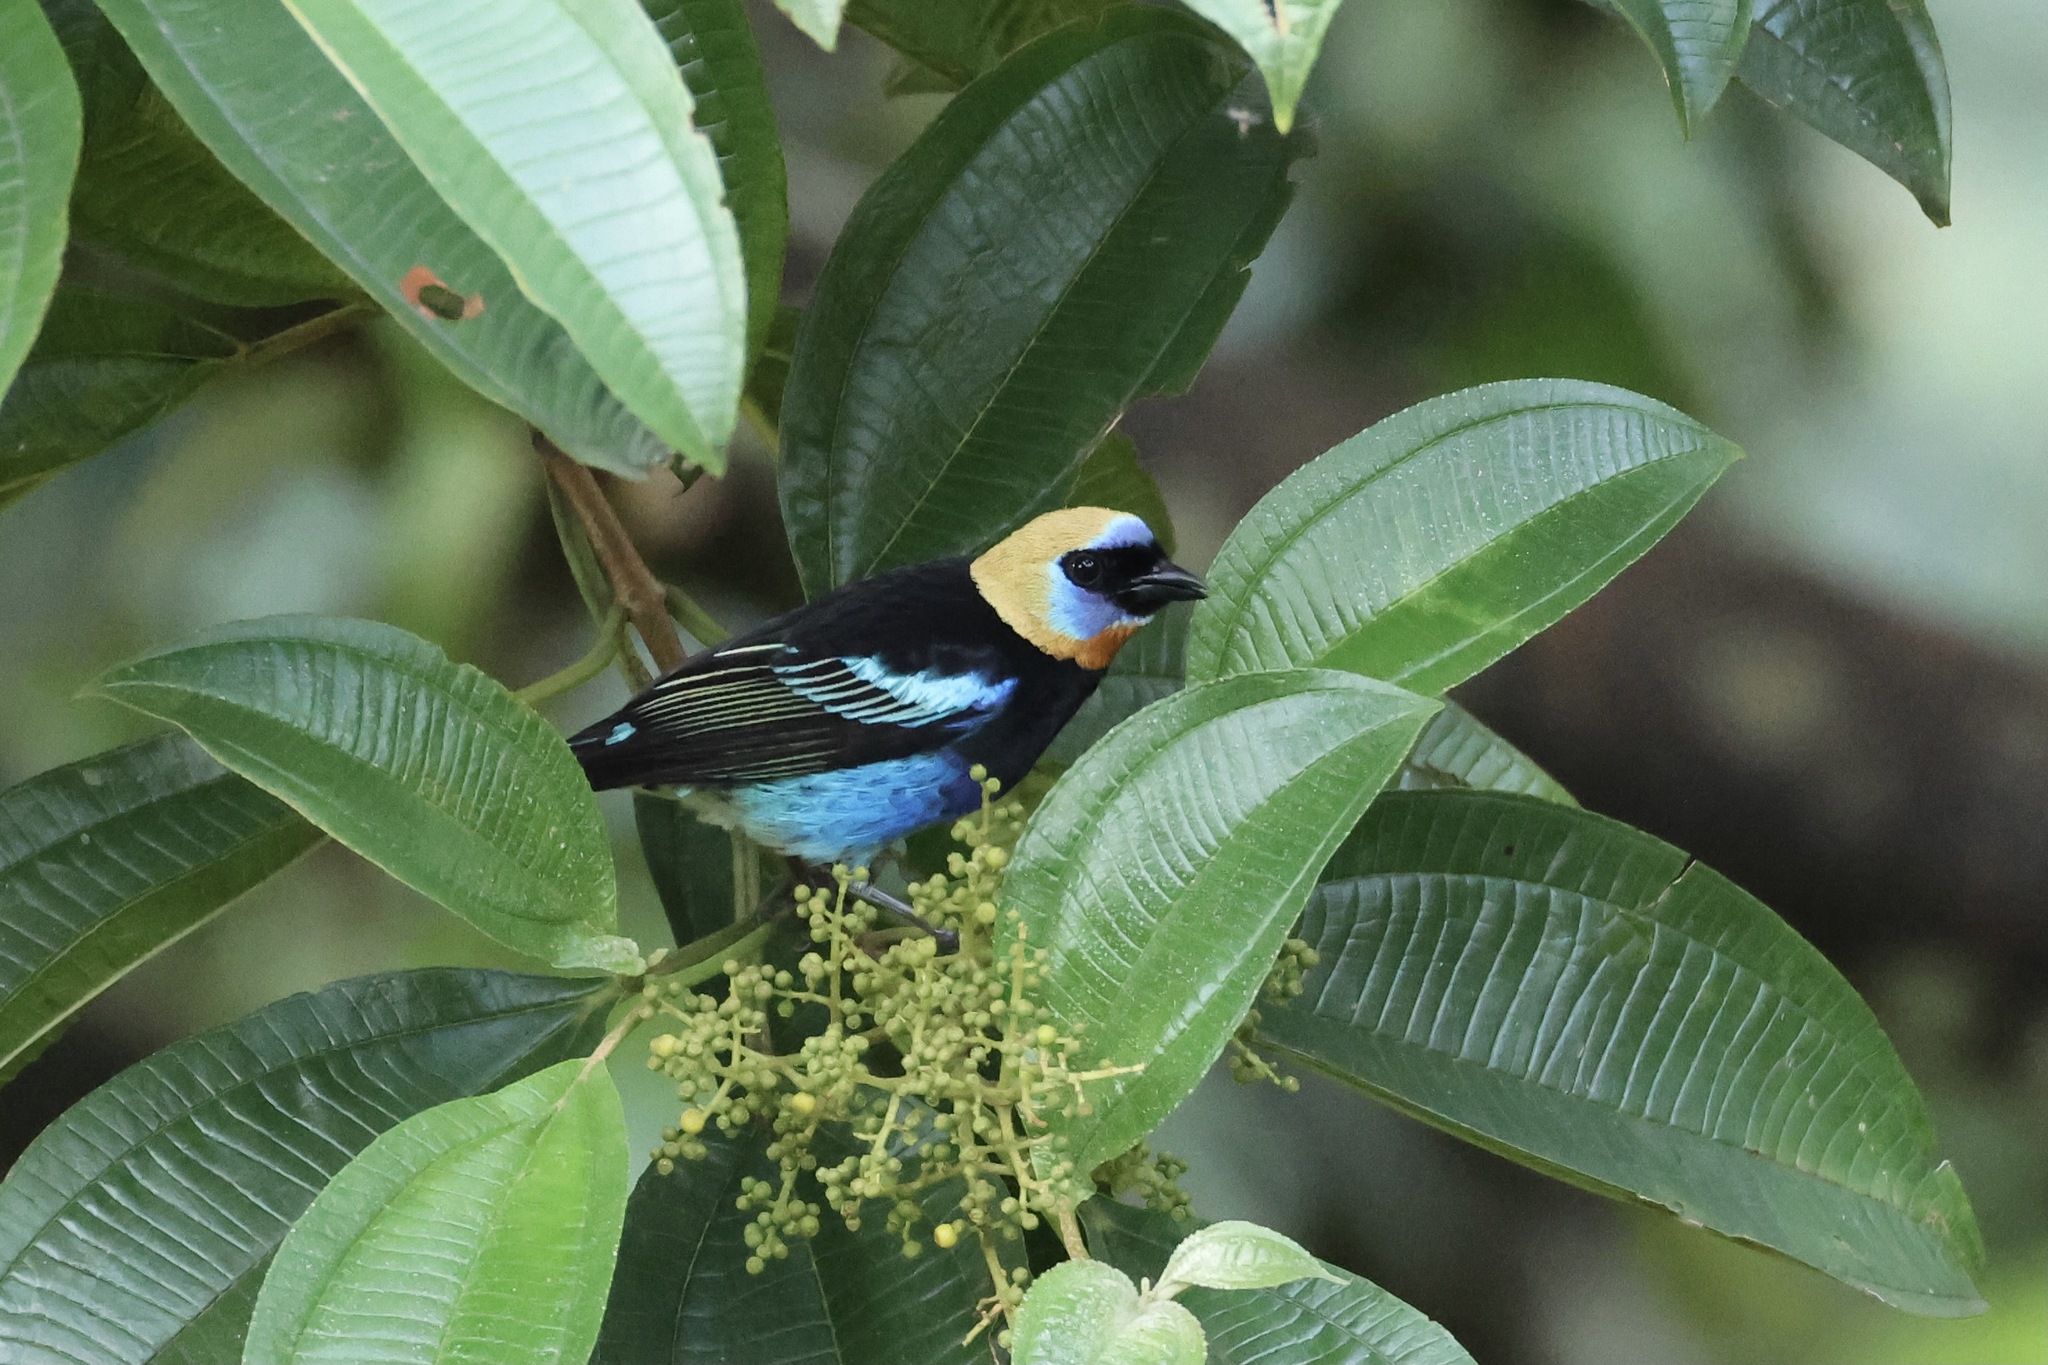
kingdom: Animalia
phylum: Chordata
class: Aves
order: Passeriformes
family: Thraupidae
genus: Stilpnia
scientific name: Stilpnia larvata
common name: Golden-hooded tanager
